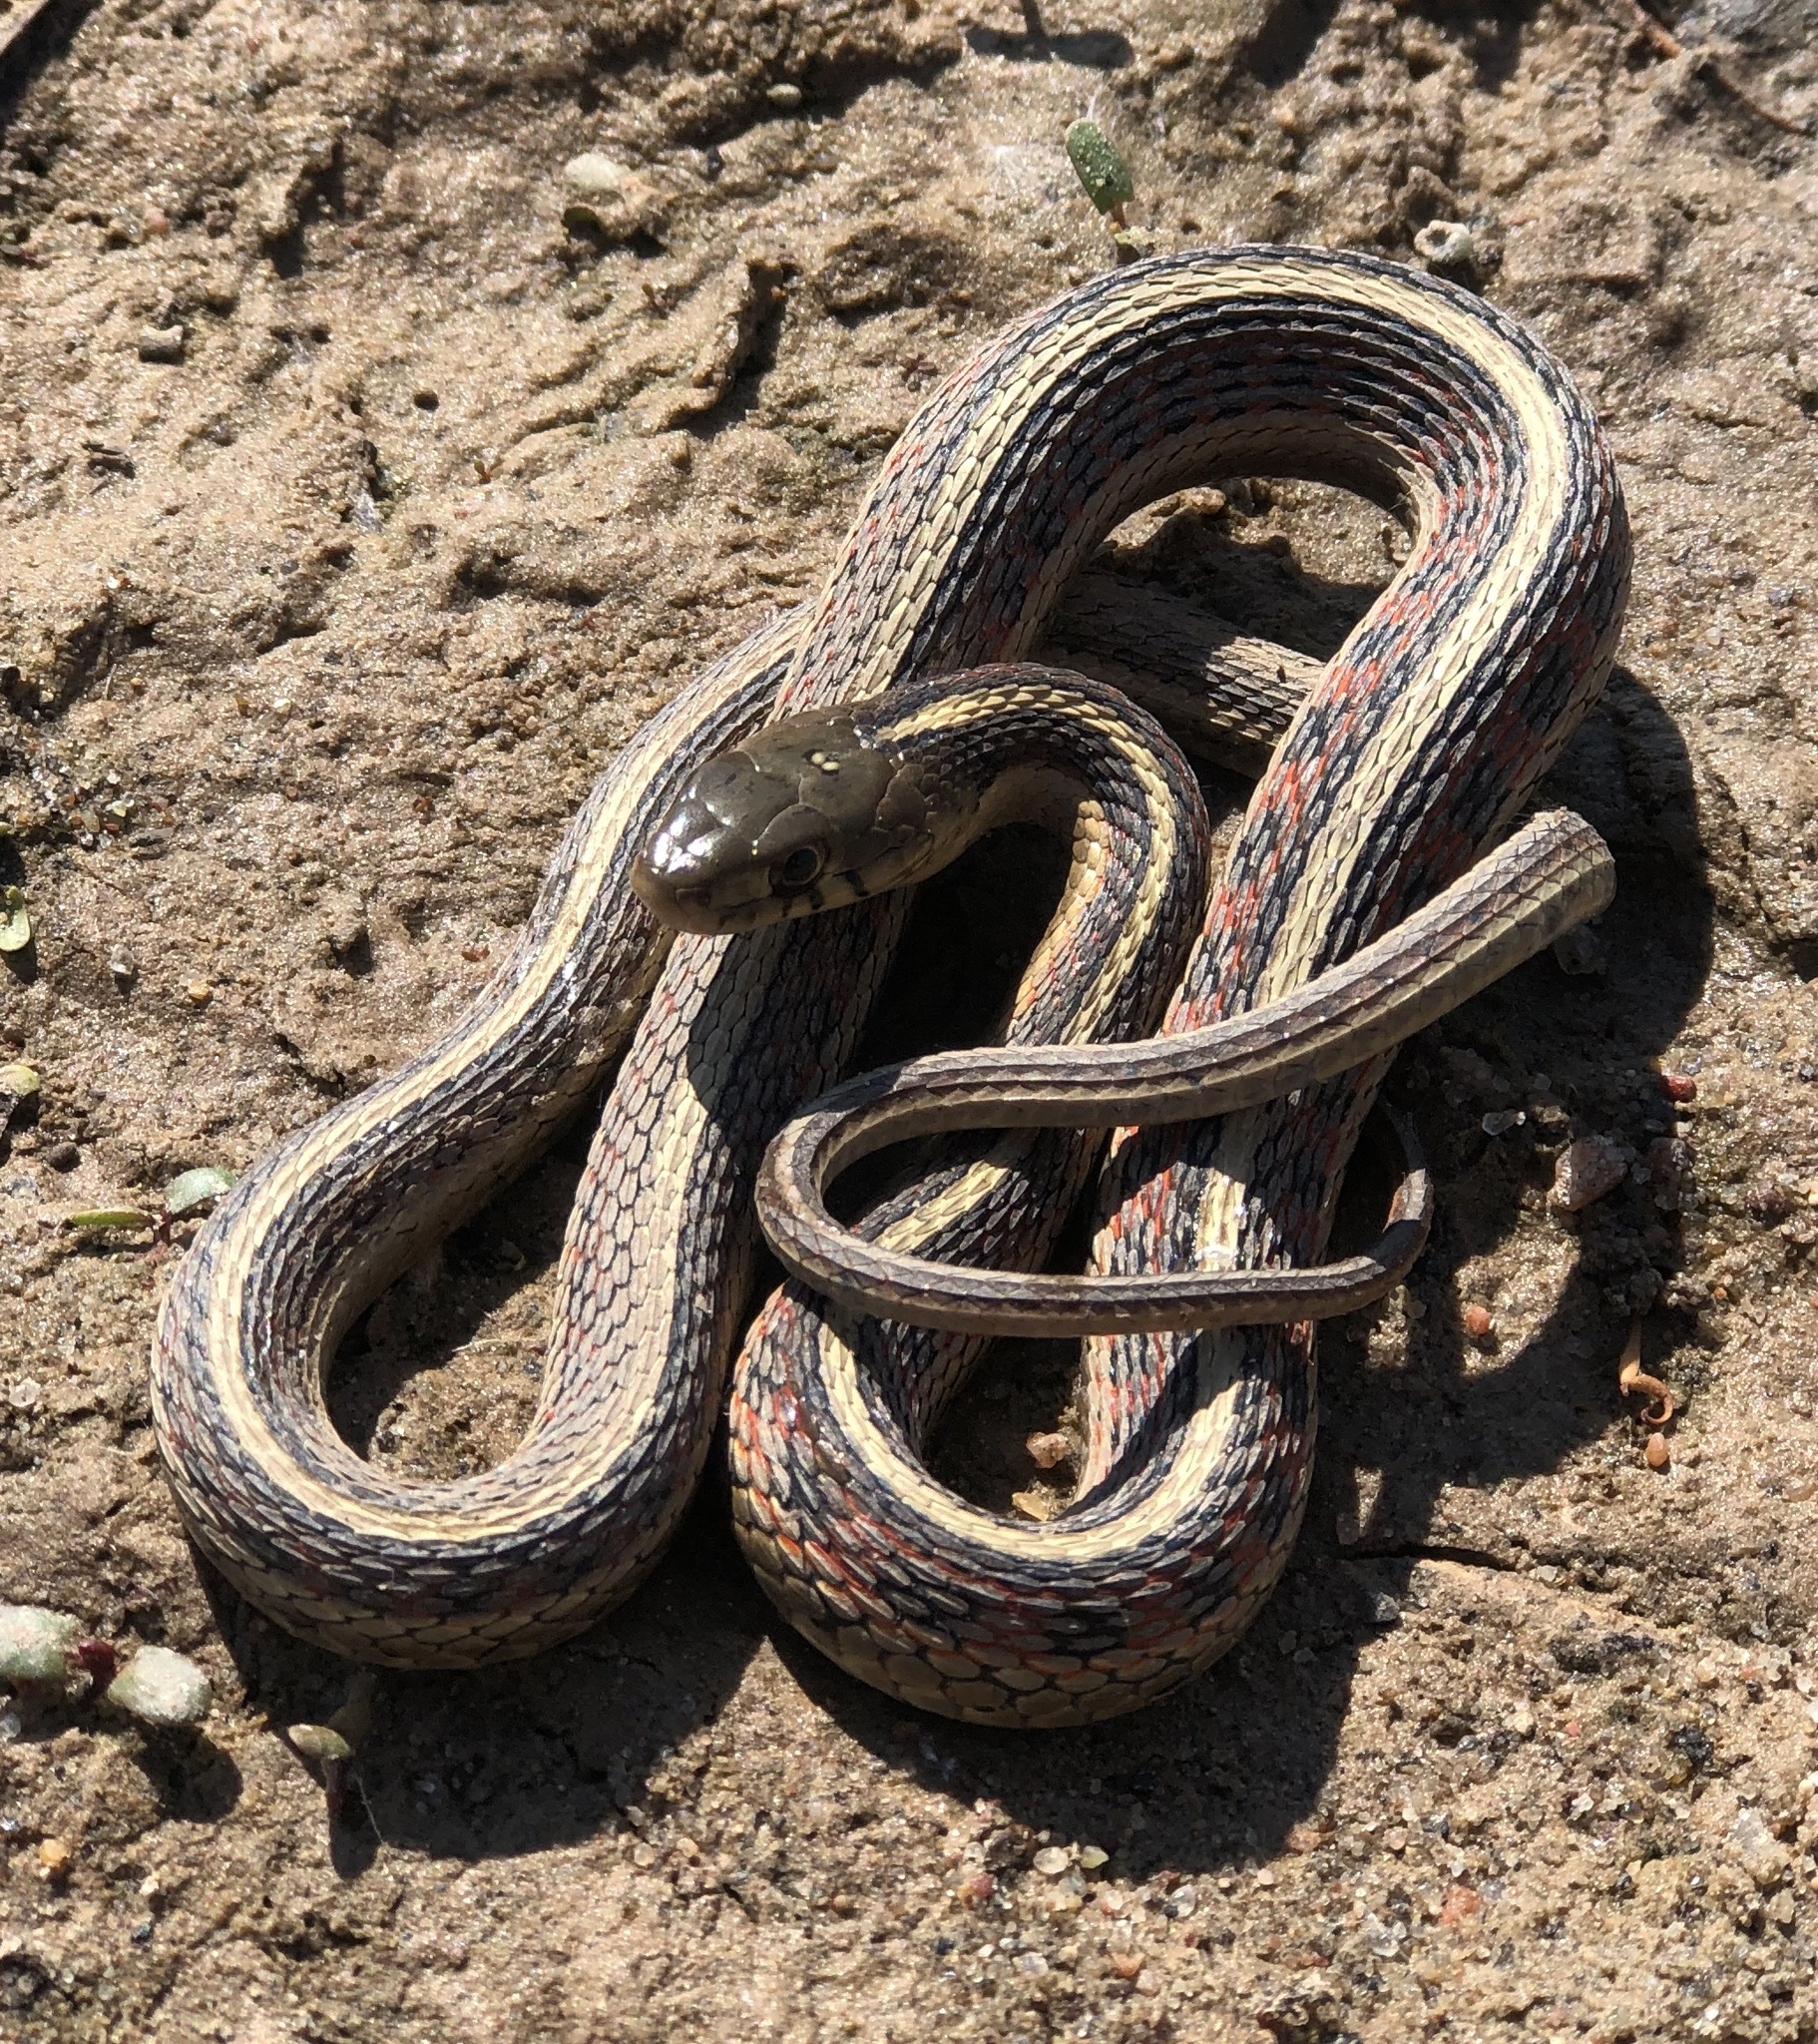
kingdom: Animalia
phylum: Chordata
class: Squamata
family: Colubridae
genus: Thamnophis
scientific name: Thamnophis sirtalis
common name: Common garter snake
